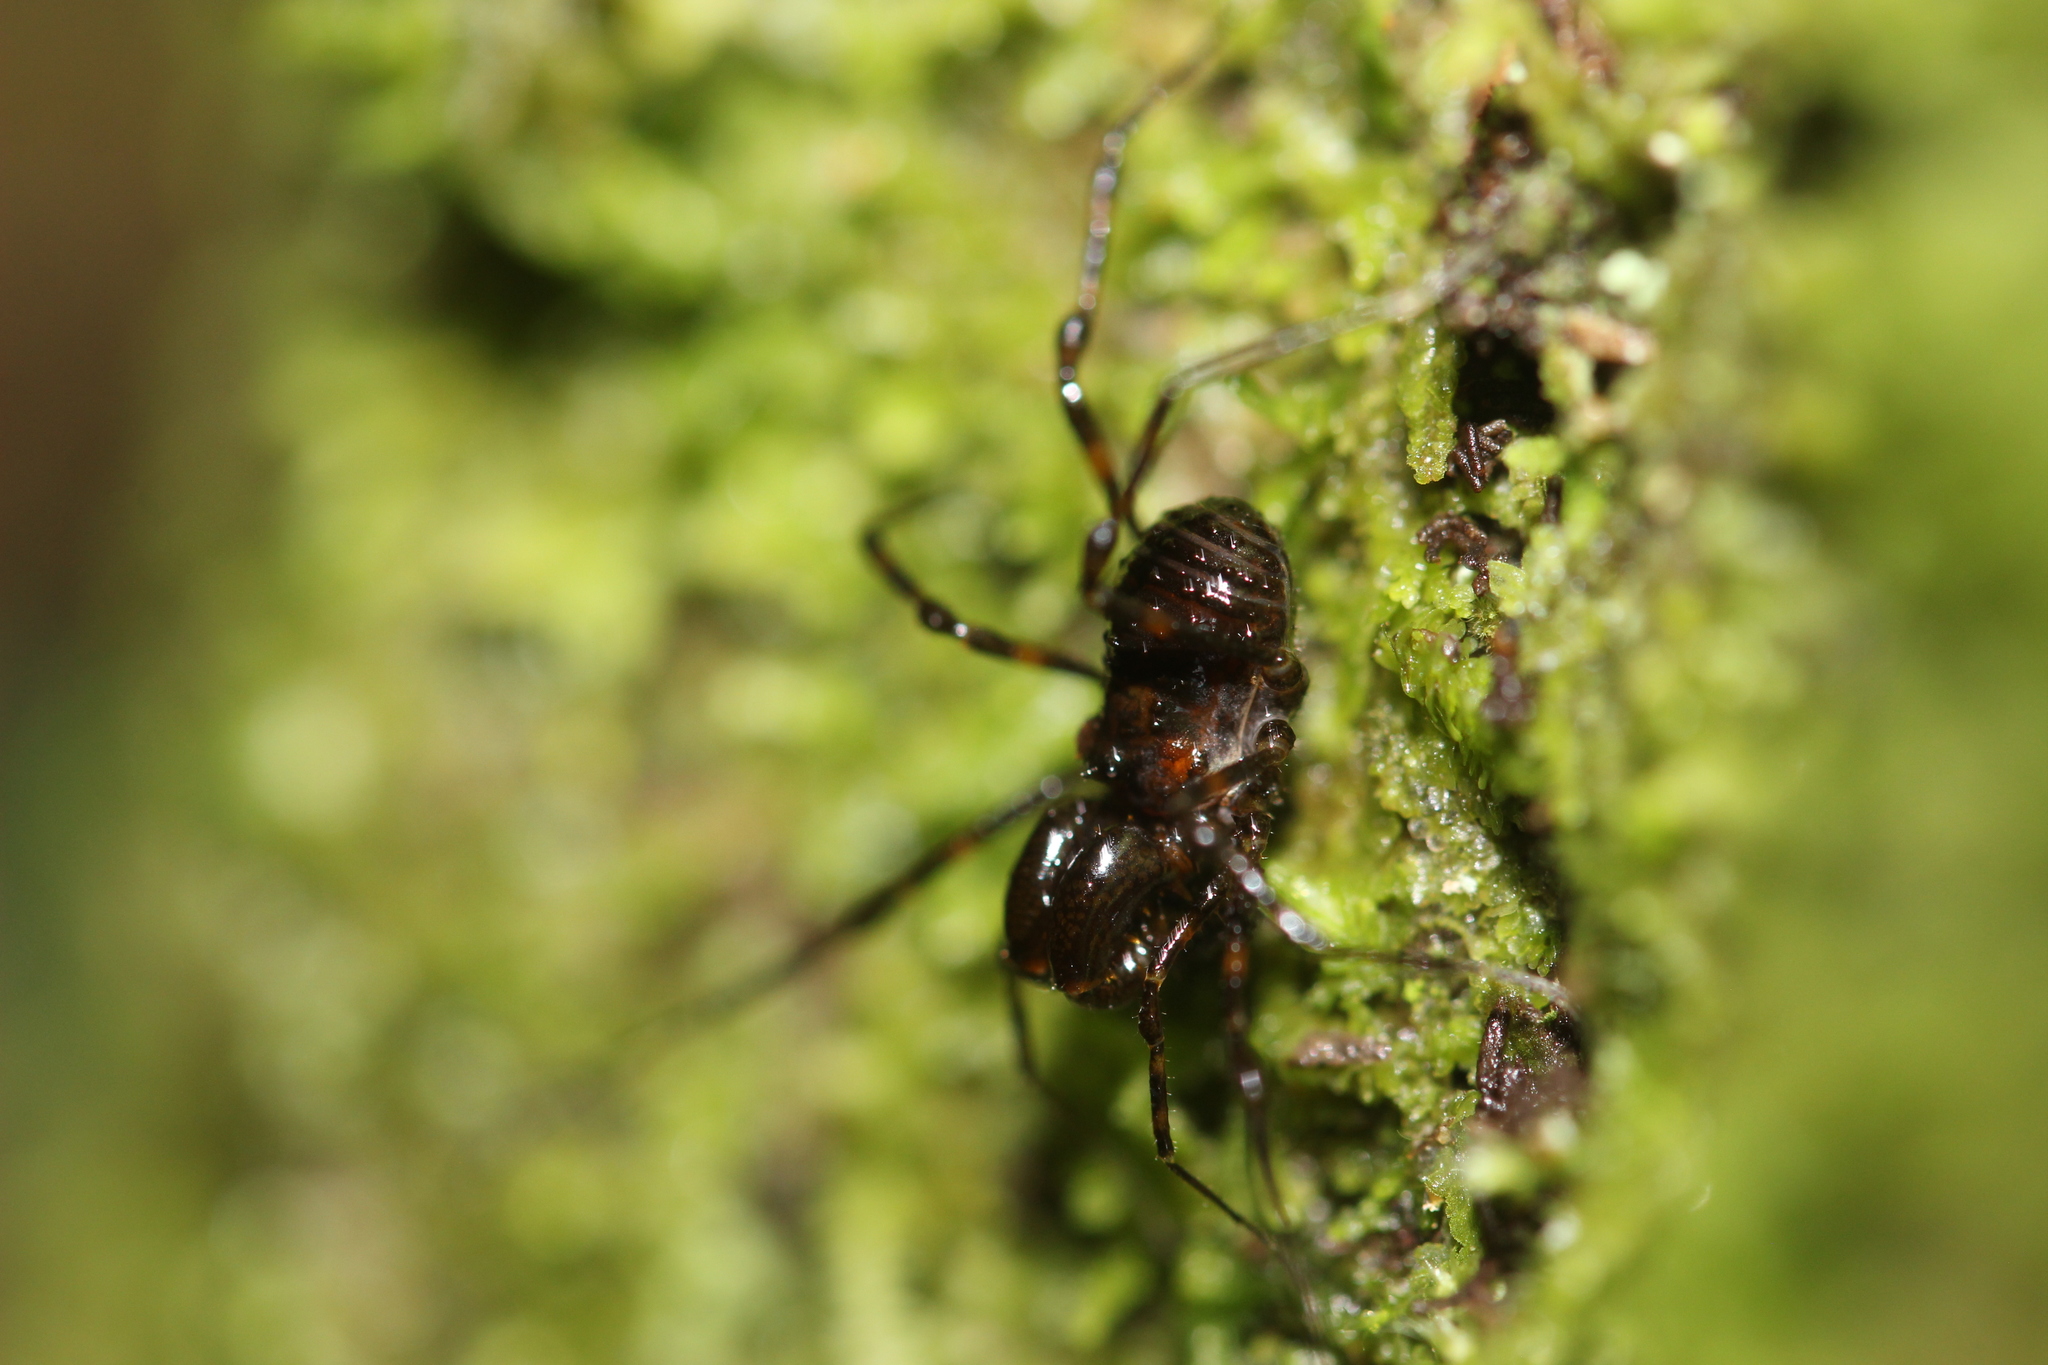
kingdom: Animalia
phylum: Arthropoda
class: Arachnida
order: Opiliones
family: Triaenonychidae
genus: Hendea
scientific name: Hendea myersi
